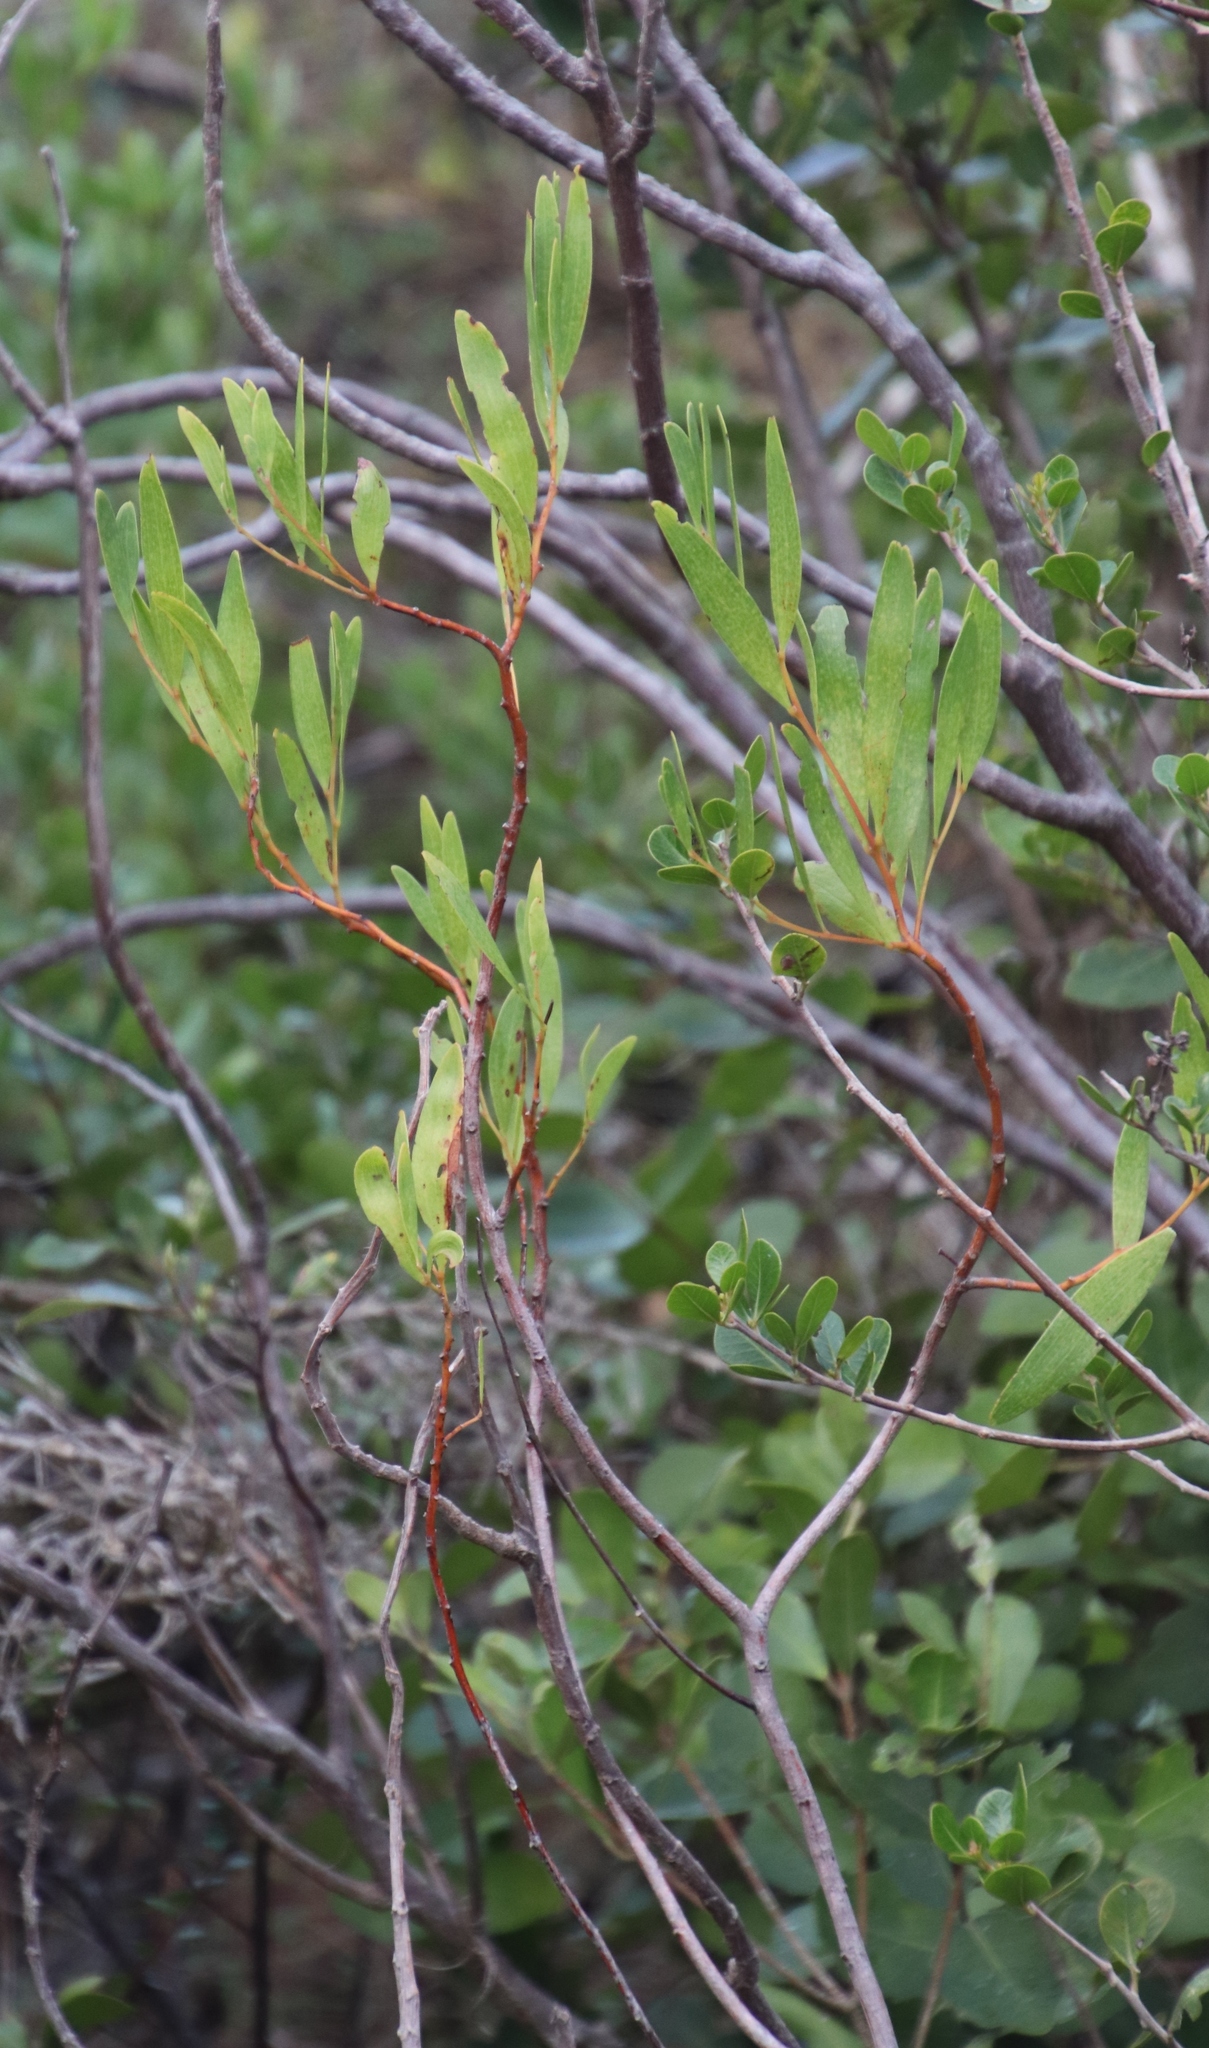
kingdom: Plantae
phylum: Tracheophyta
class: Magnoliopsida
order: Fabales
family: Fabaceae
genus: Acacia
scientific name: Acacia cyclops
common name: Coastal wattle
